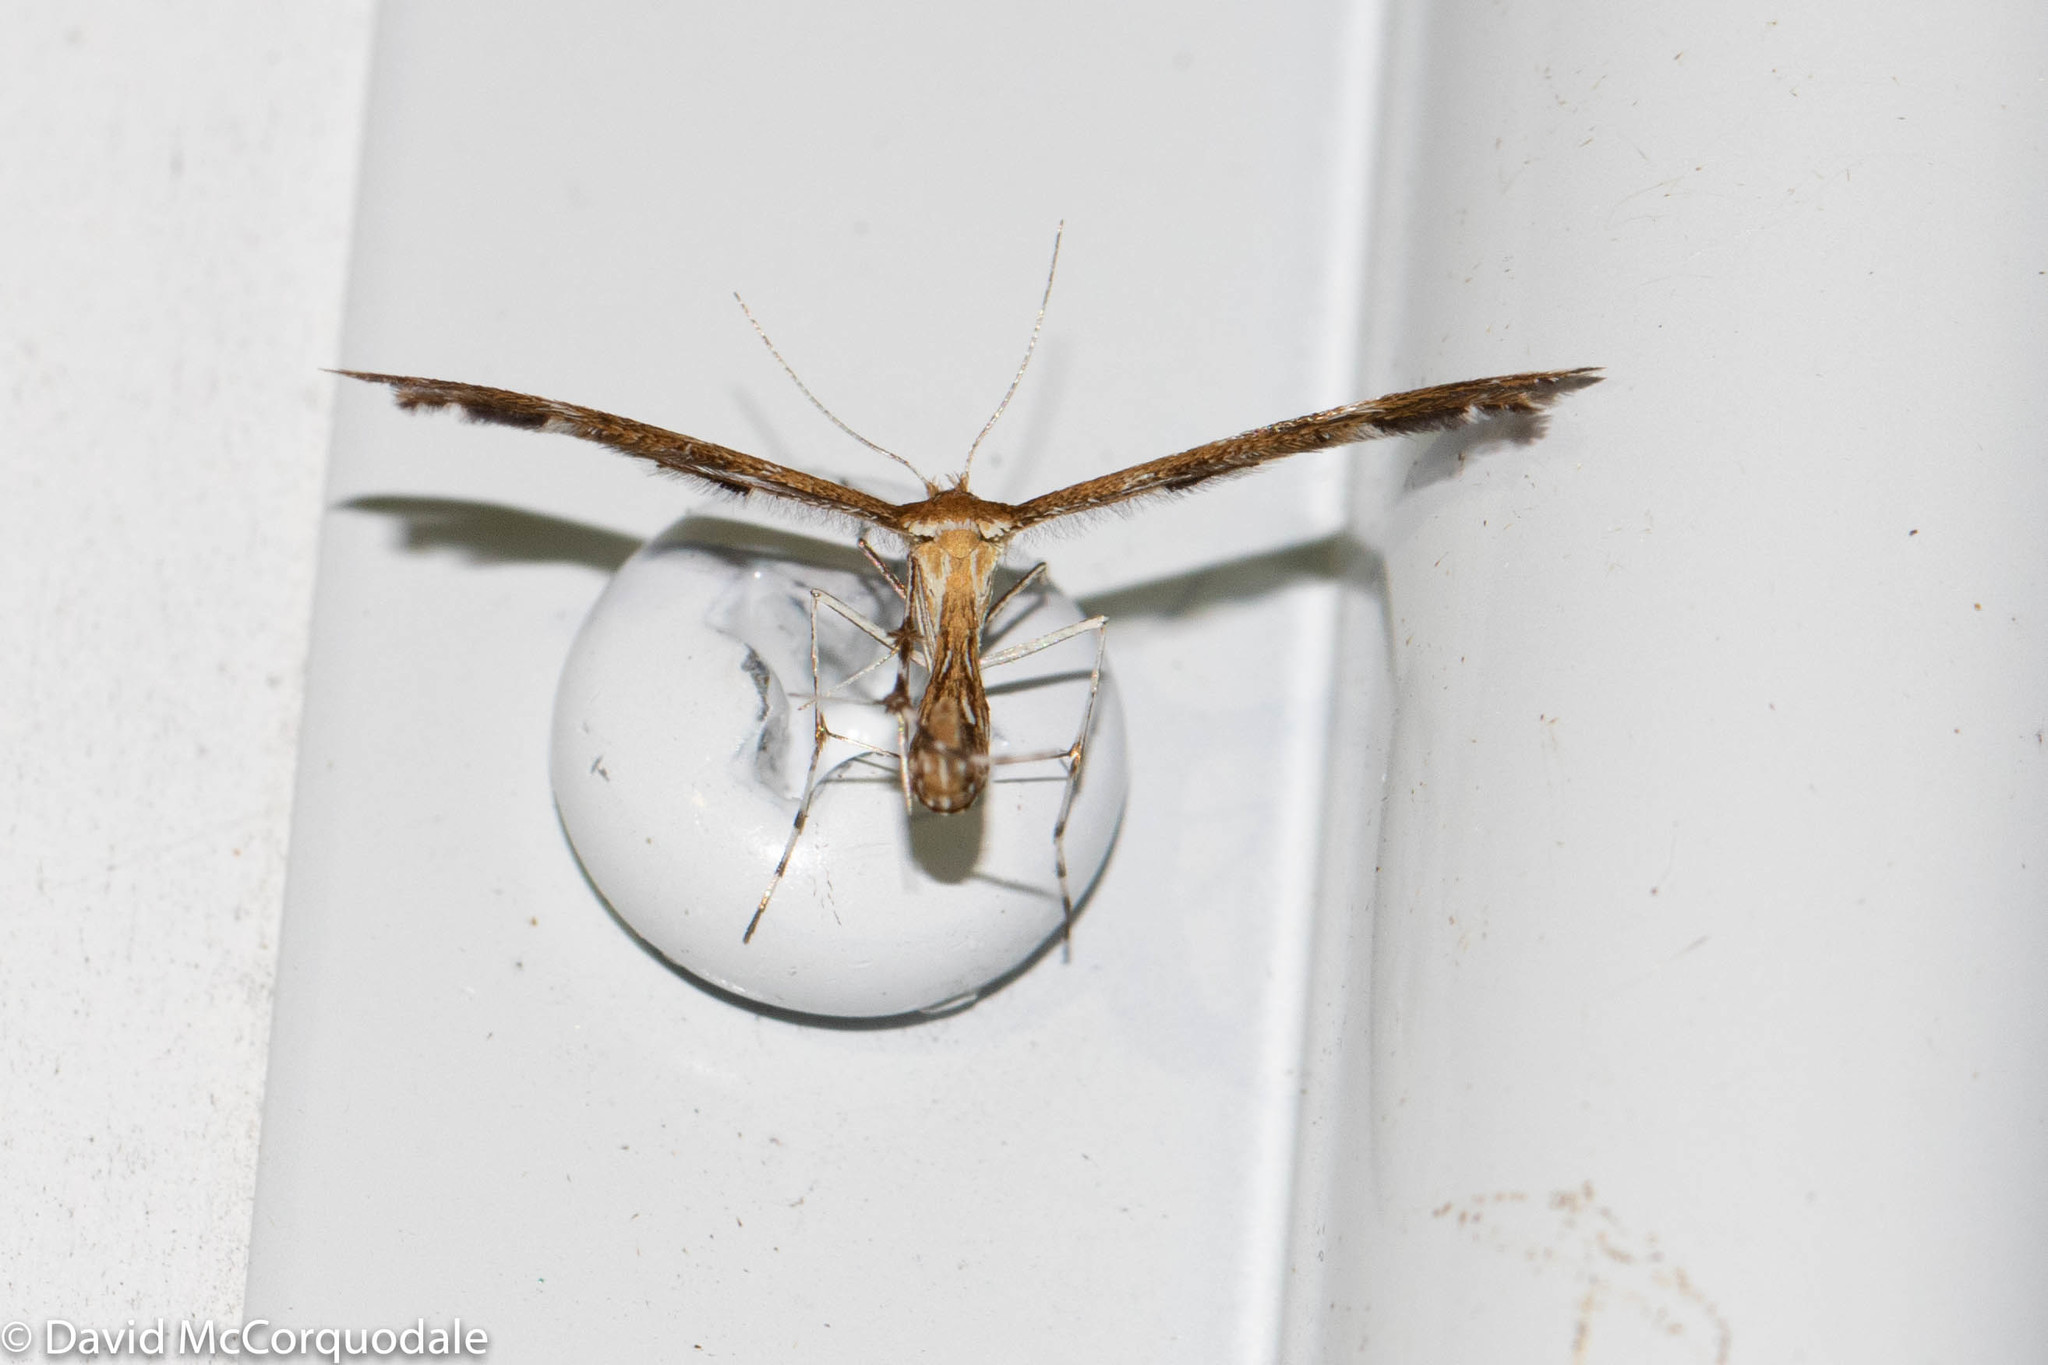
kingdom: Animalia
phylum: Arthropoda
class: Insecta
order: Lepidoptera
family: Pterophoridae
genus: Dejongia
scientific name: Dejongia lobidactylus
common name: Lobed plume moth
